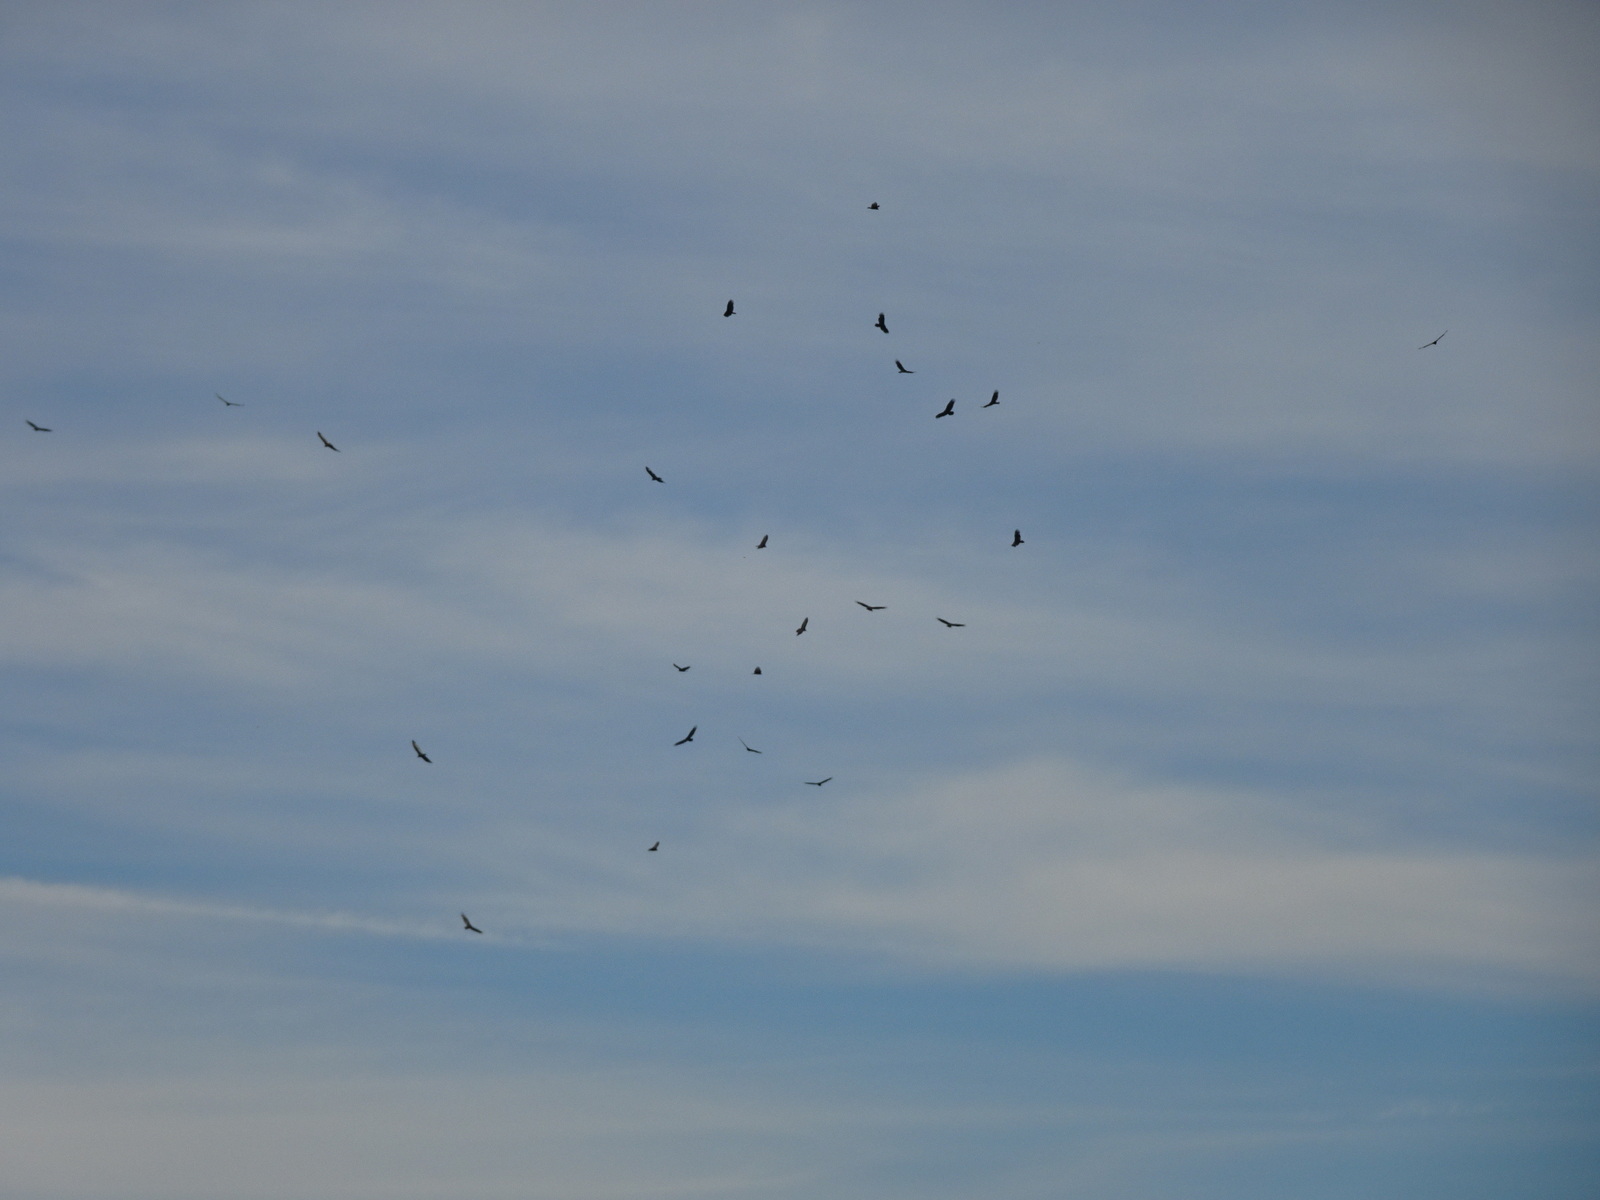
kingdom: Animalia
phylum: Chordata
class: Aves
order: Accipitriformes
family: Cathartidae
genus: Cathartes
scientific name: Cathartes aura
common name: Turkey vulture
